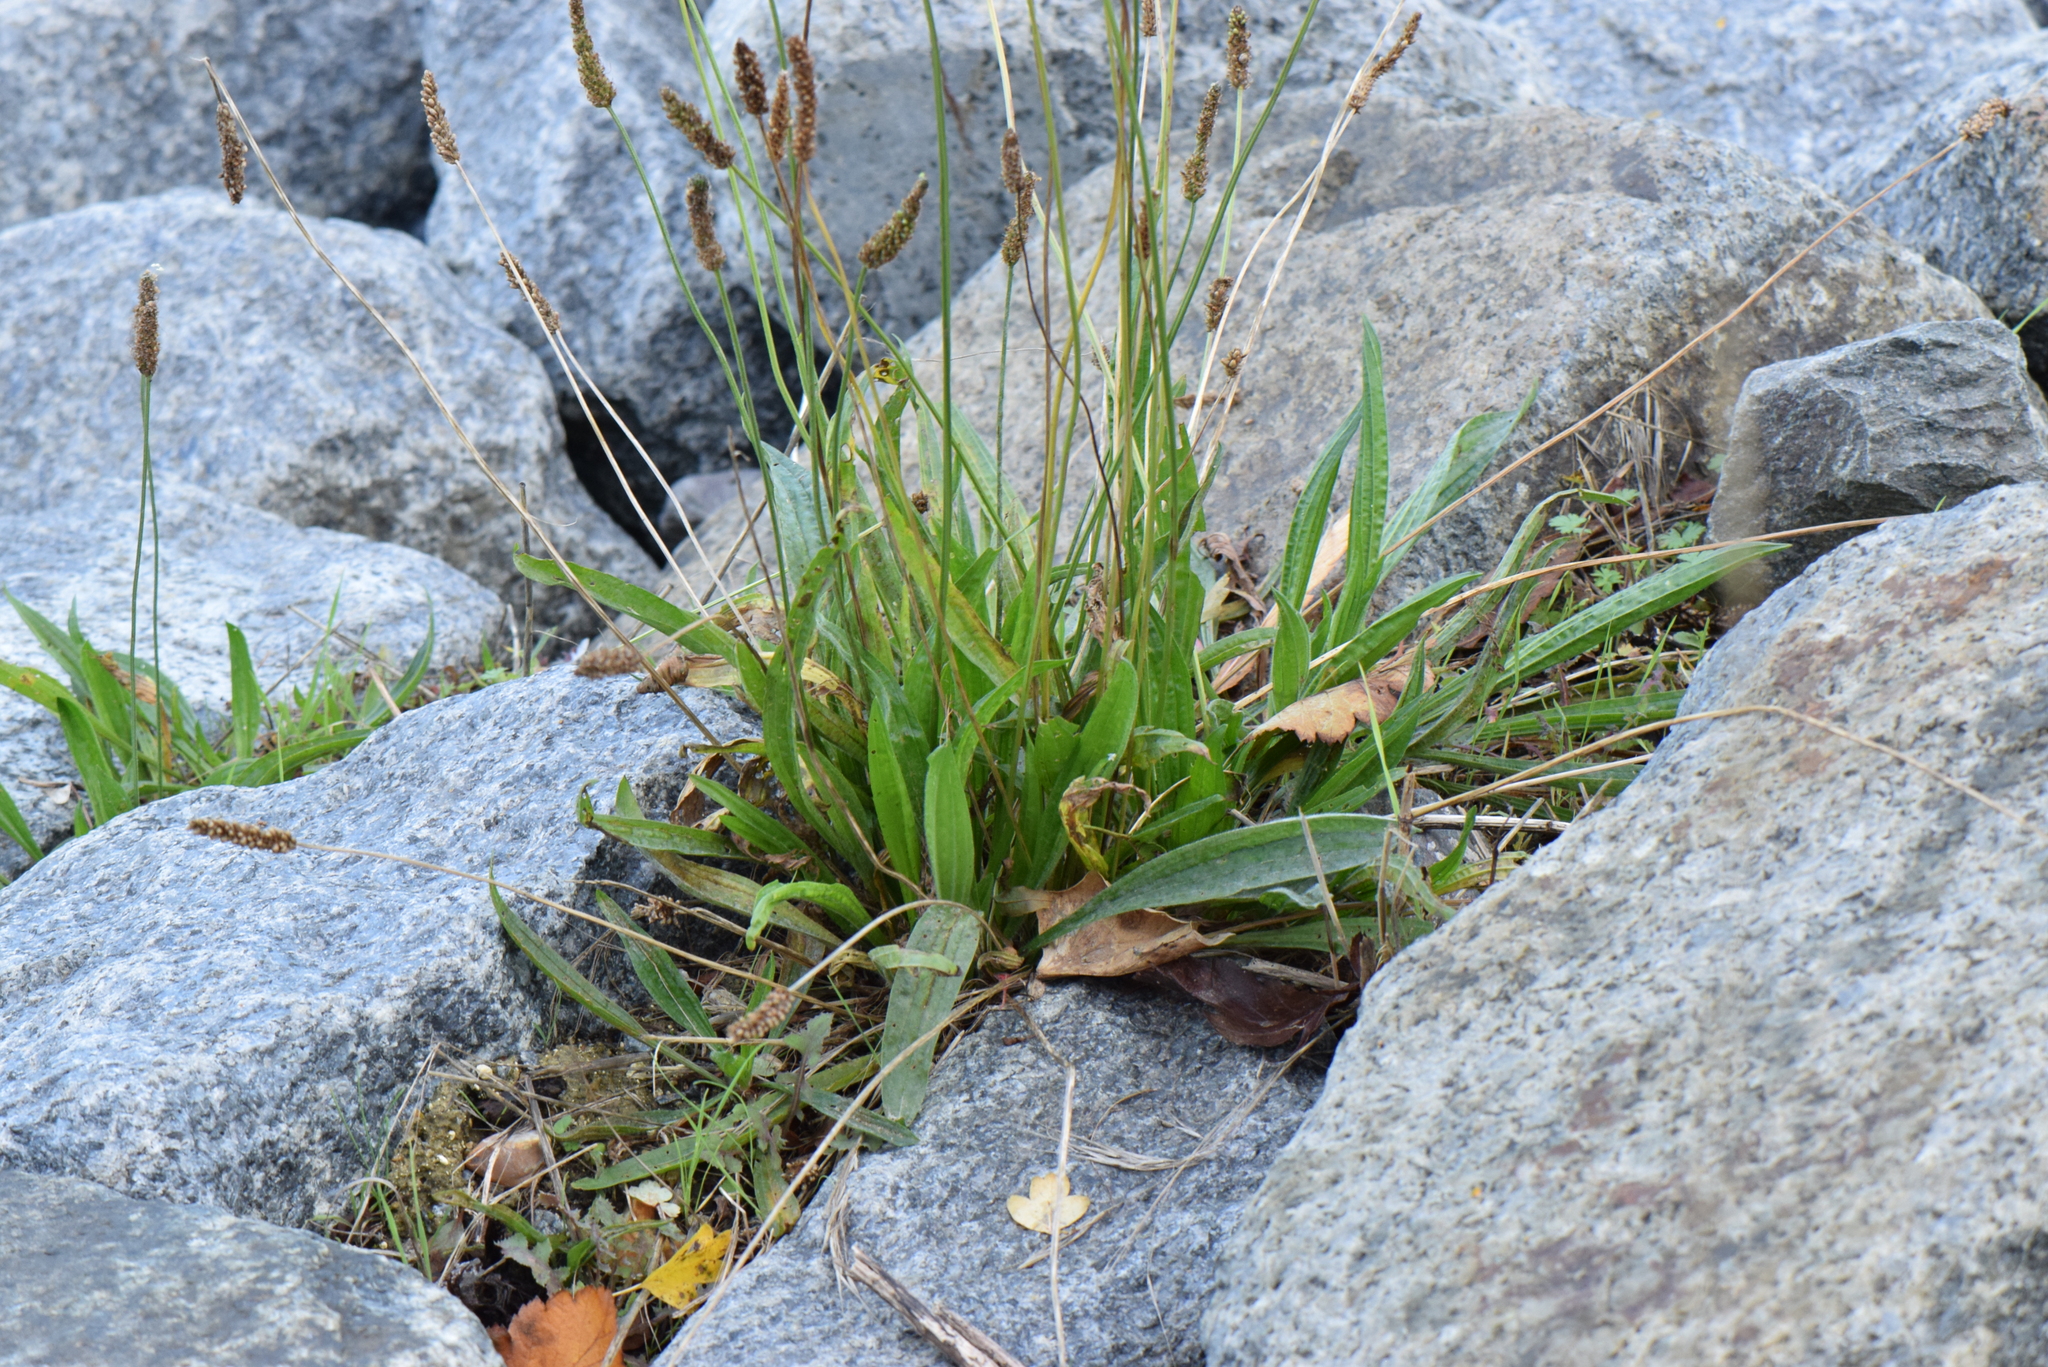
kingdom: Plantae
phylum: Tracheophyta
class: Magnoliopsida
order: Lamiales
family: Plantaginaceae
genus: Plantago
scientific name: Plantago lanceolata
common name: Ribwort plantain
